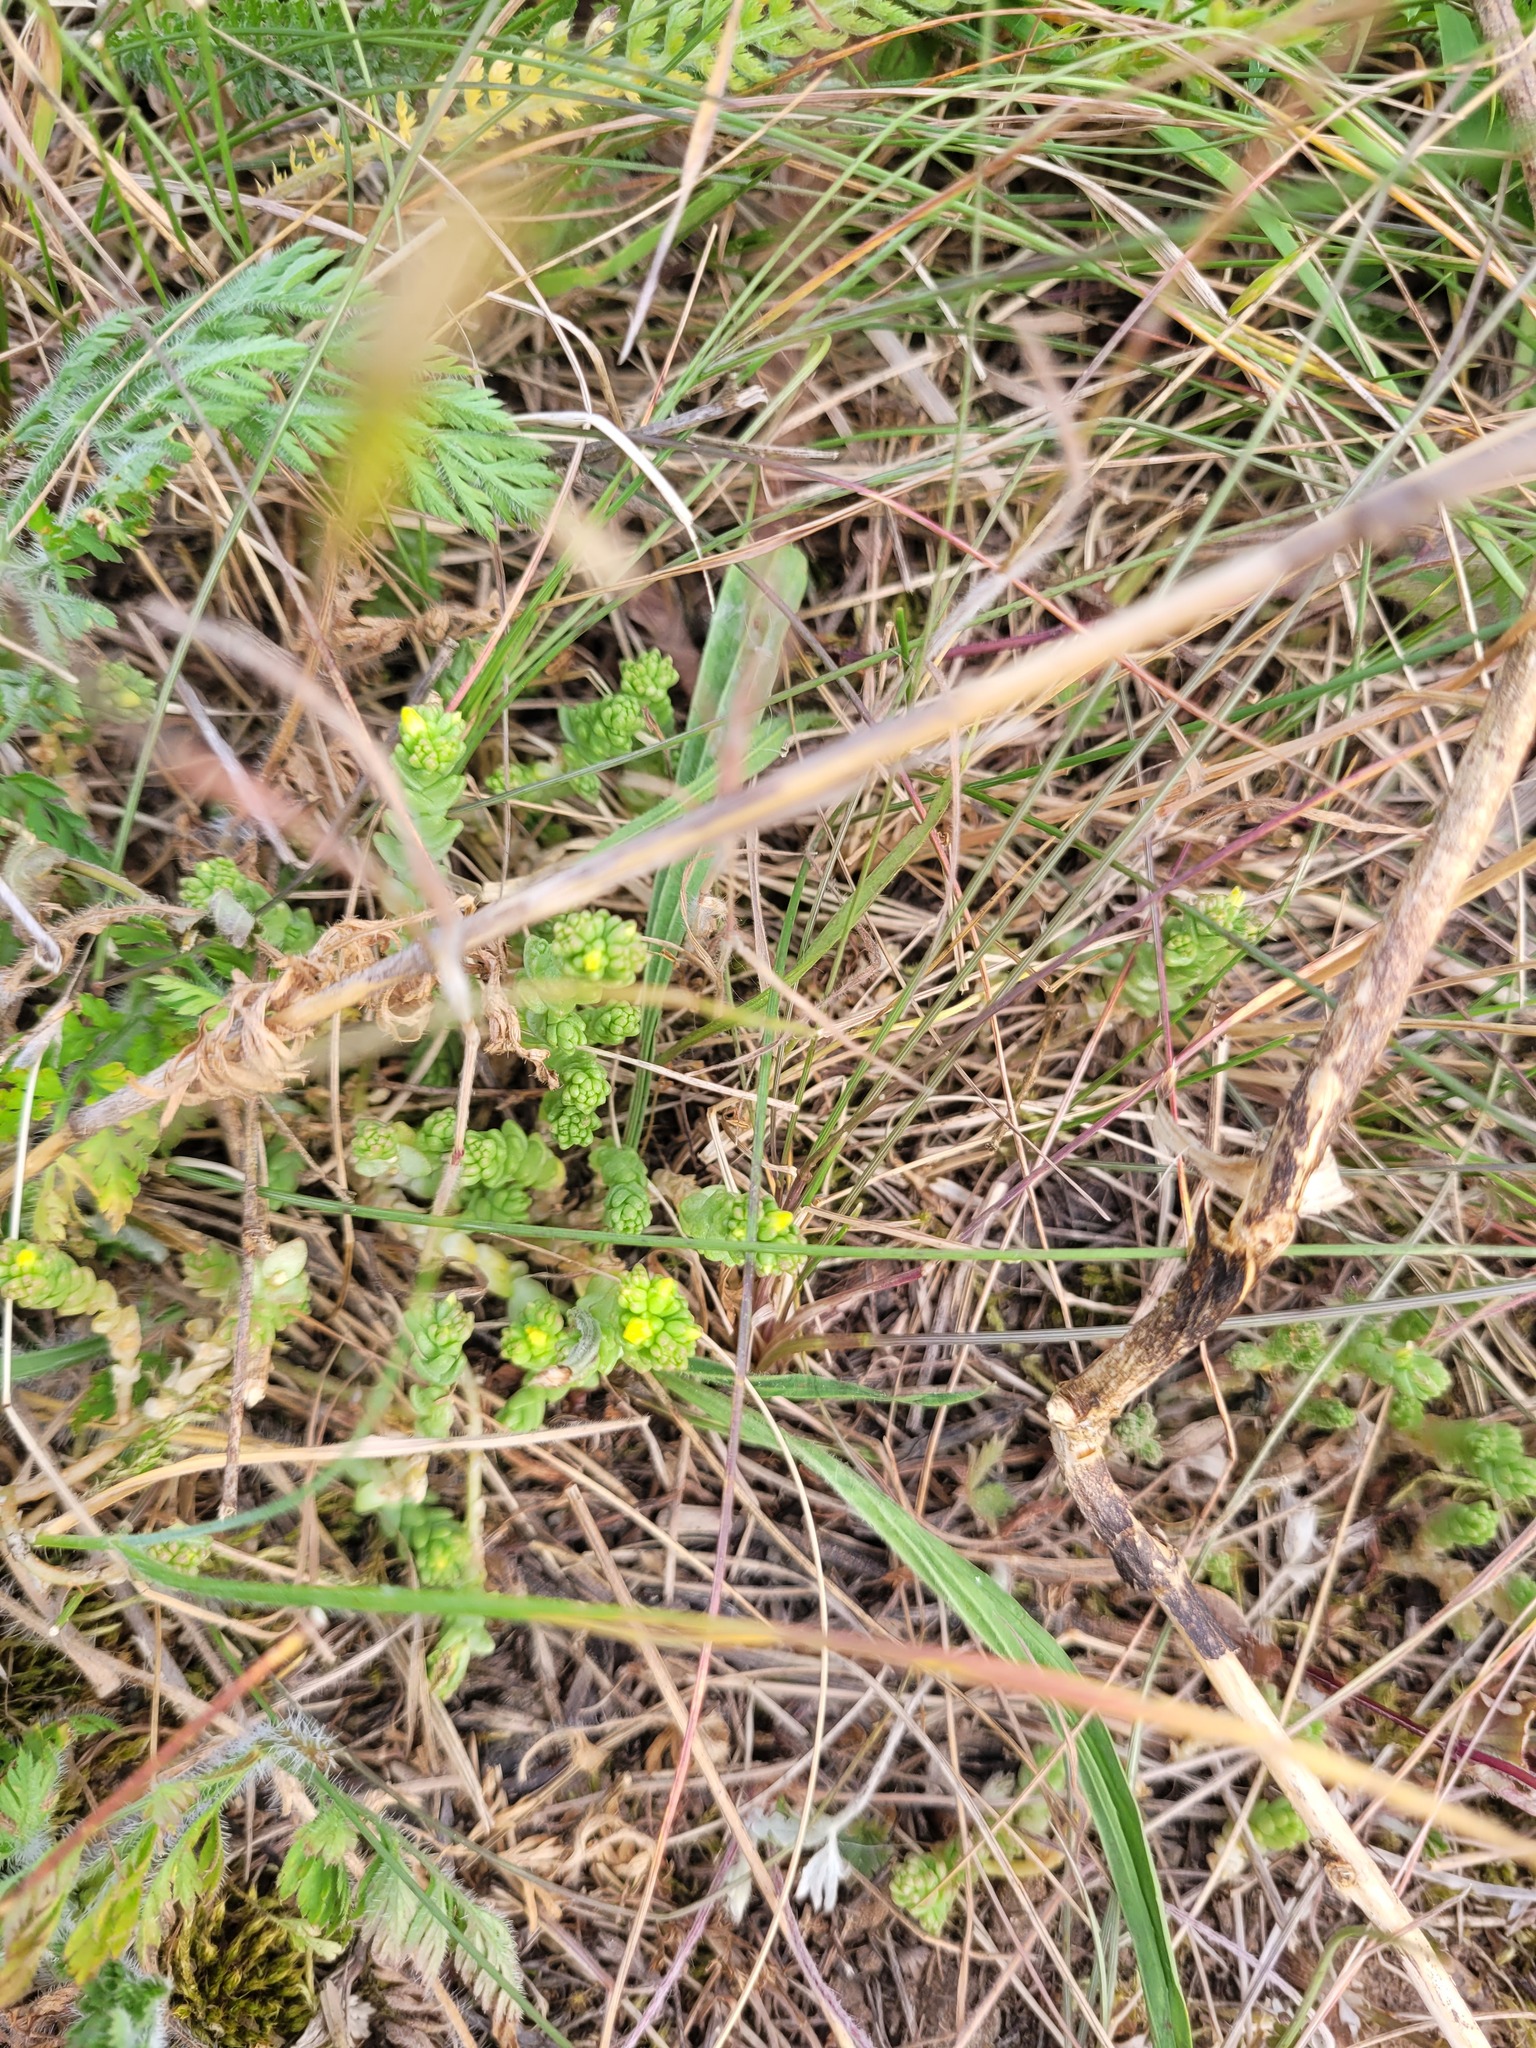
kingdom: Plantae
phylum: Tracheophyta
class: Magnoliopsida
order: Saxifragales
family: Crassulaceae
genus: Sedum
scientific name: Sedum acre
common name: Biting stonecrop
